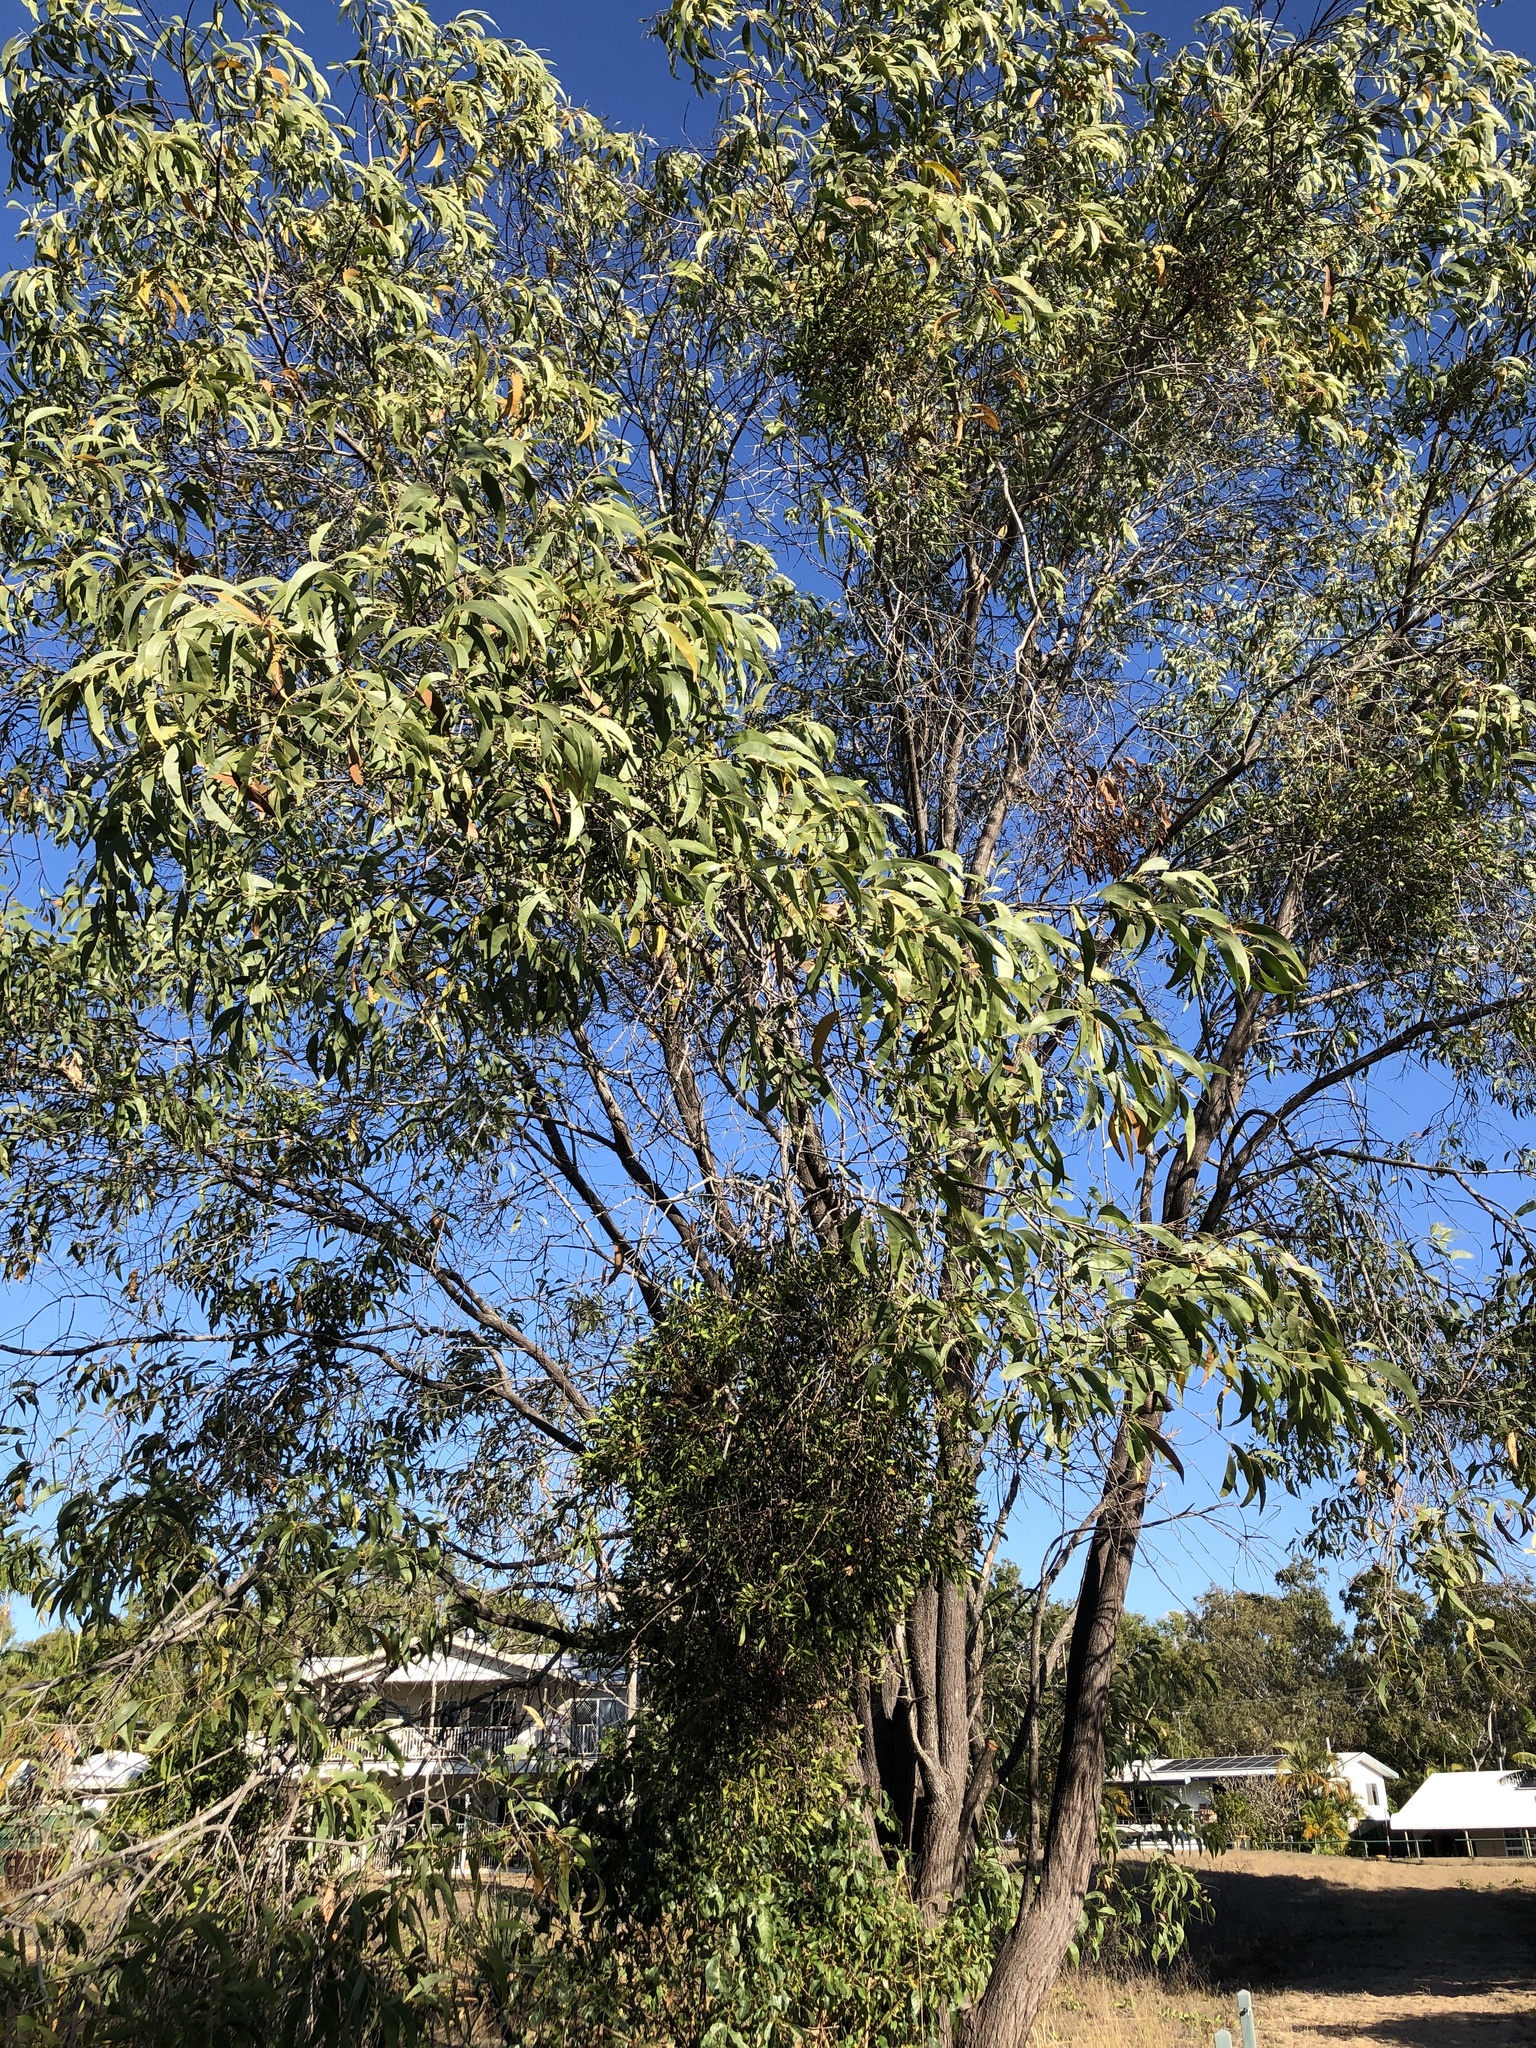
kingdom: Plantae
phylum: Tracheophyta
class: Magnoliopsida
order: Fabales
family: Fabaceae
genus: Acacia
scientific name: Acacia crassicarpa
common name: Northern wattle
